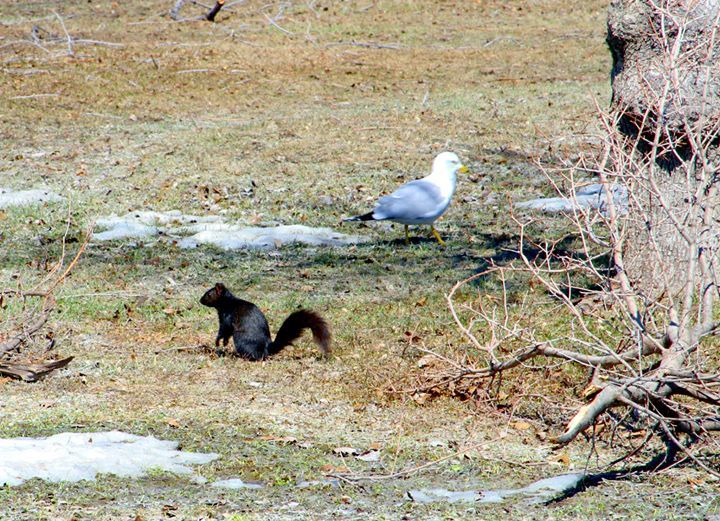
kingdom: Animalia
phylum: Chordata
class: Mammalia
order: Rodentia
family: Sciuridae
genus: Sciurus
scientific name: Sciurus carolinensis
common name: Eastern gray squirrel
